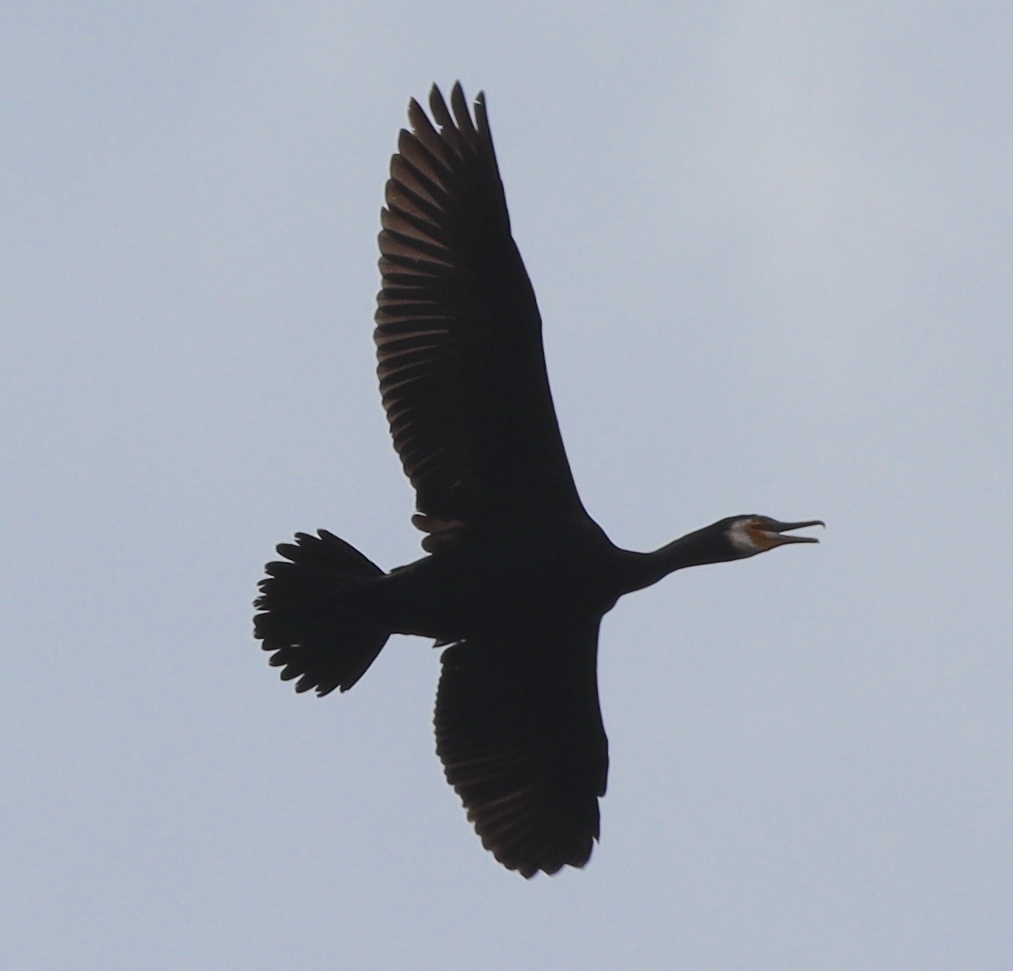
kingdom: Animalia
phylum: Chordata
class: Aves
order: Suliformes
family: Phalacrocoracidae
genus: Phalacrocorax
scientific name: Phalacrocorax carbo
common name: Great cormorant
